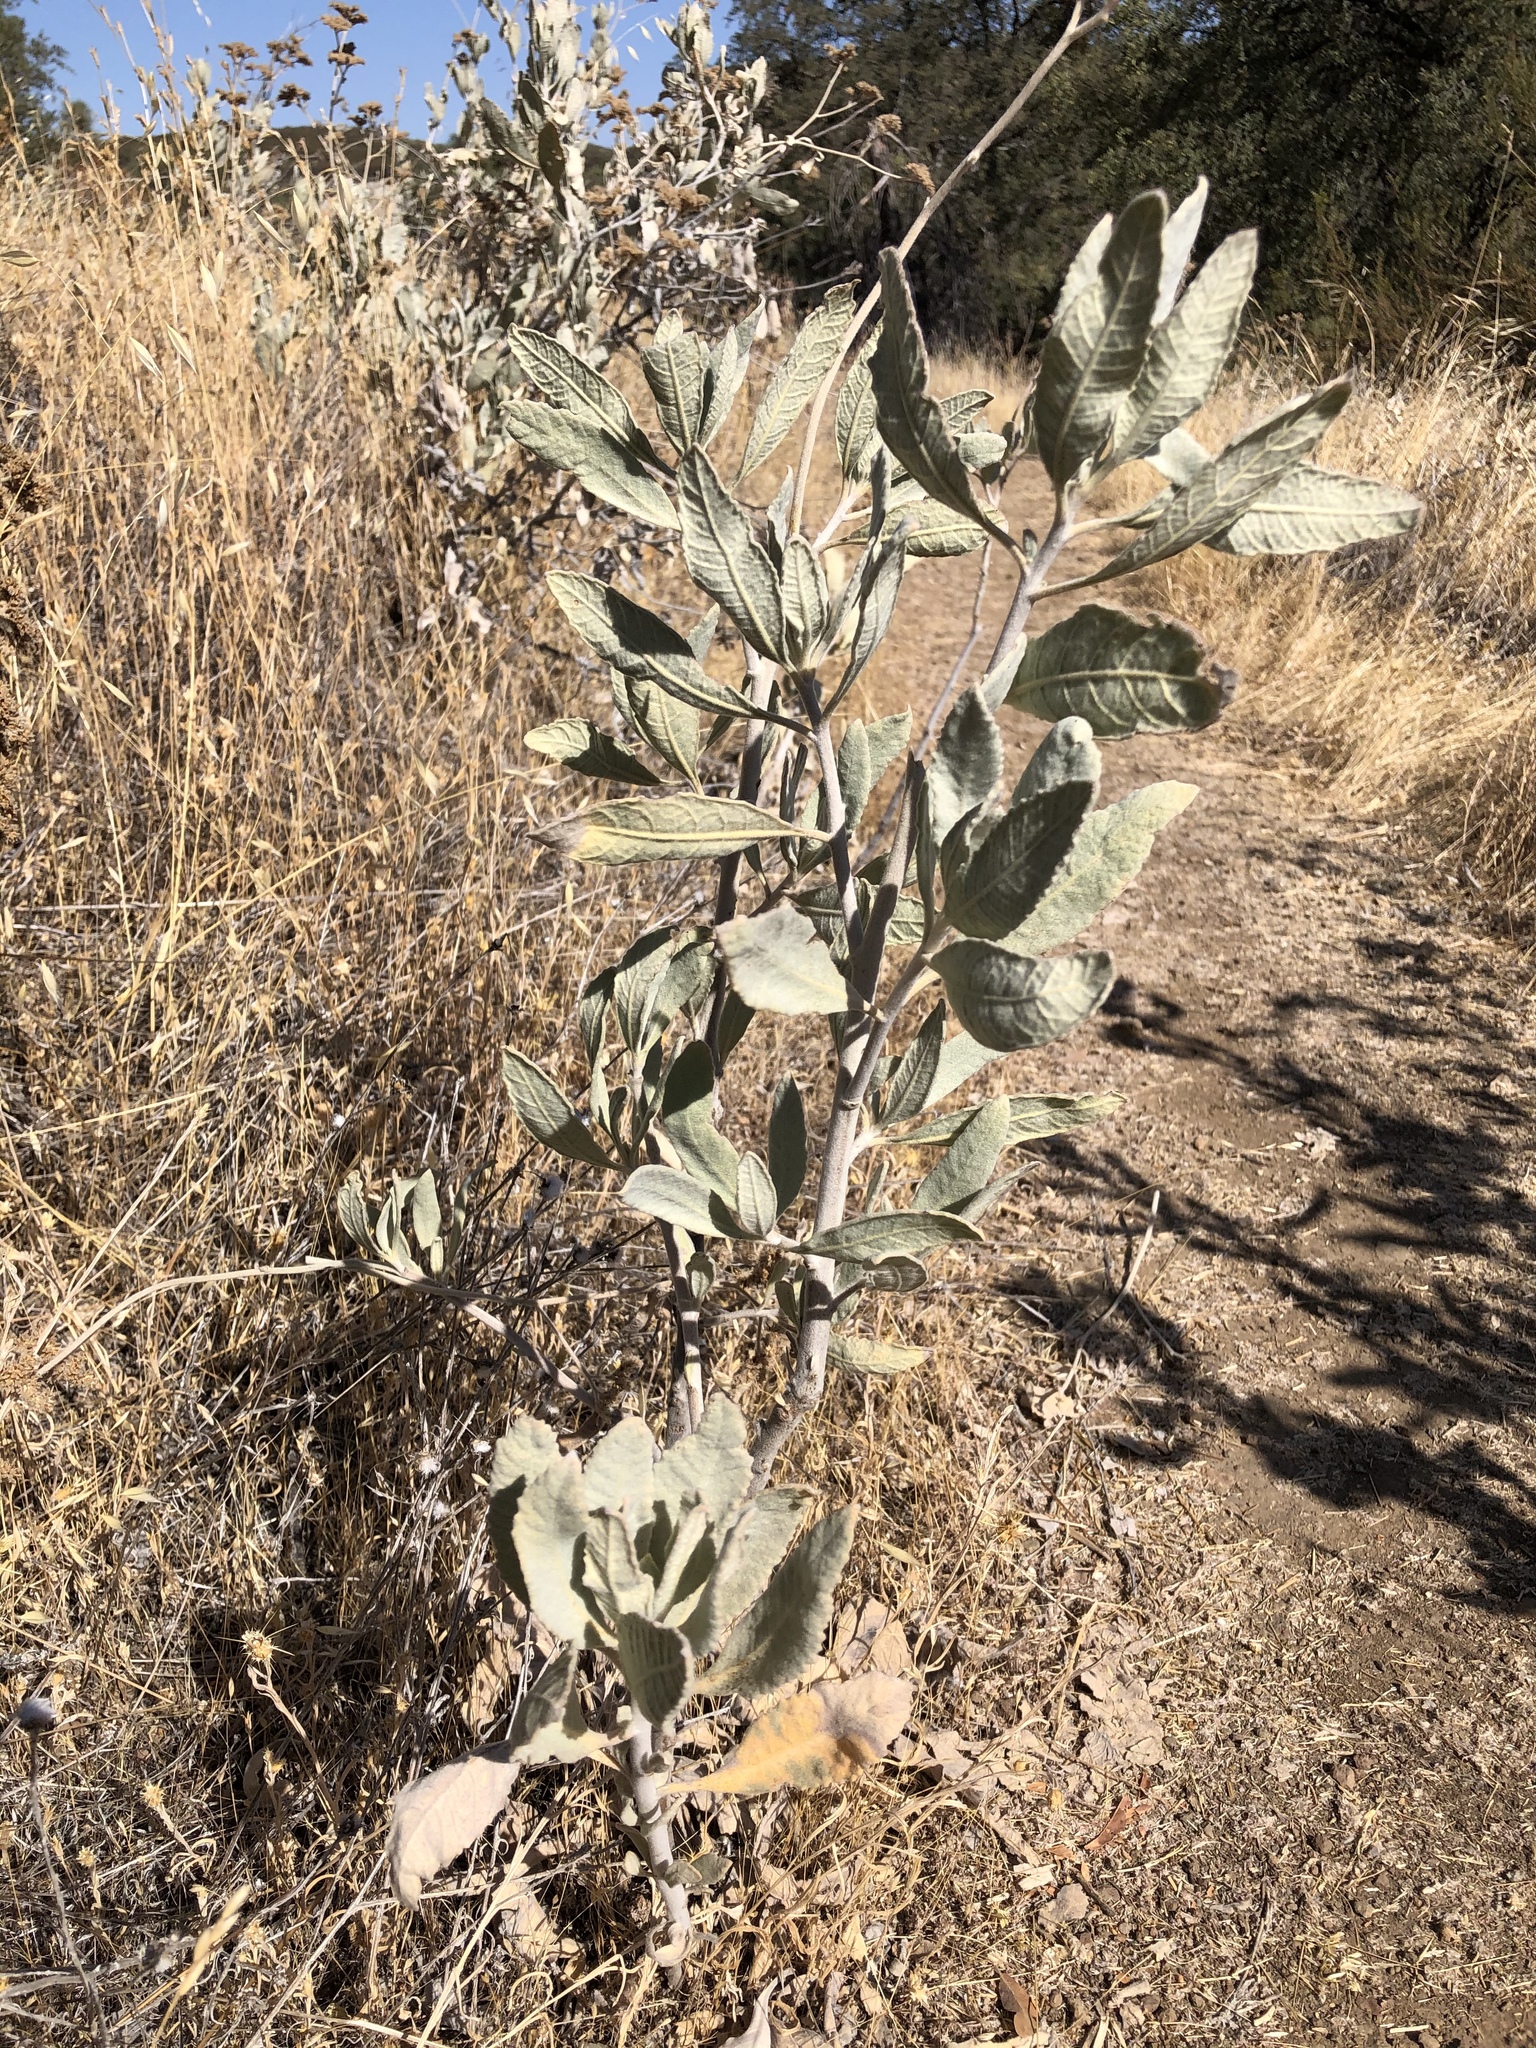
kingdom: Plantae
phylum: Tracheophyta
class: Magnoliopsida
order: Boraginales
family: Namaceae
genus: Eriodictyon
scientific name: Eriodictyon tomentosum
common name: Woolly yerba-santa
